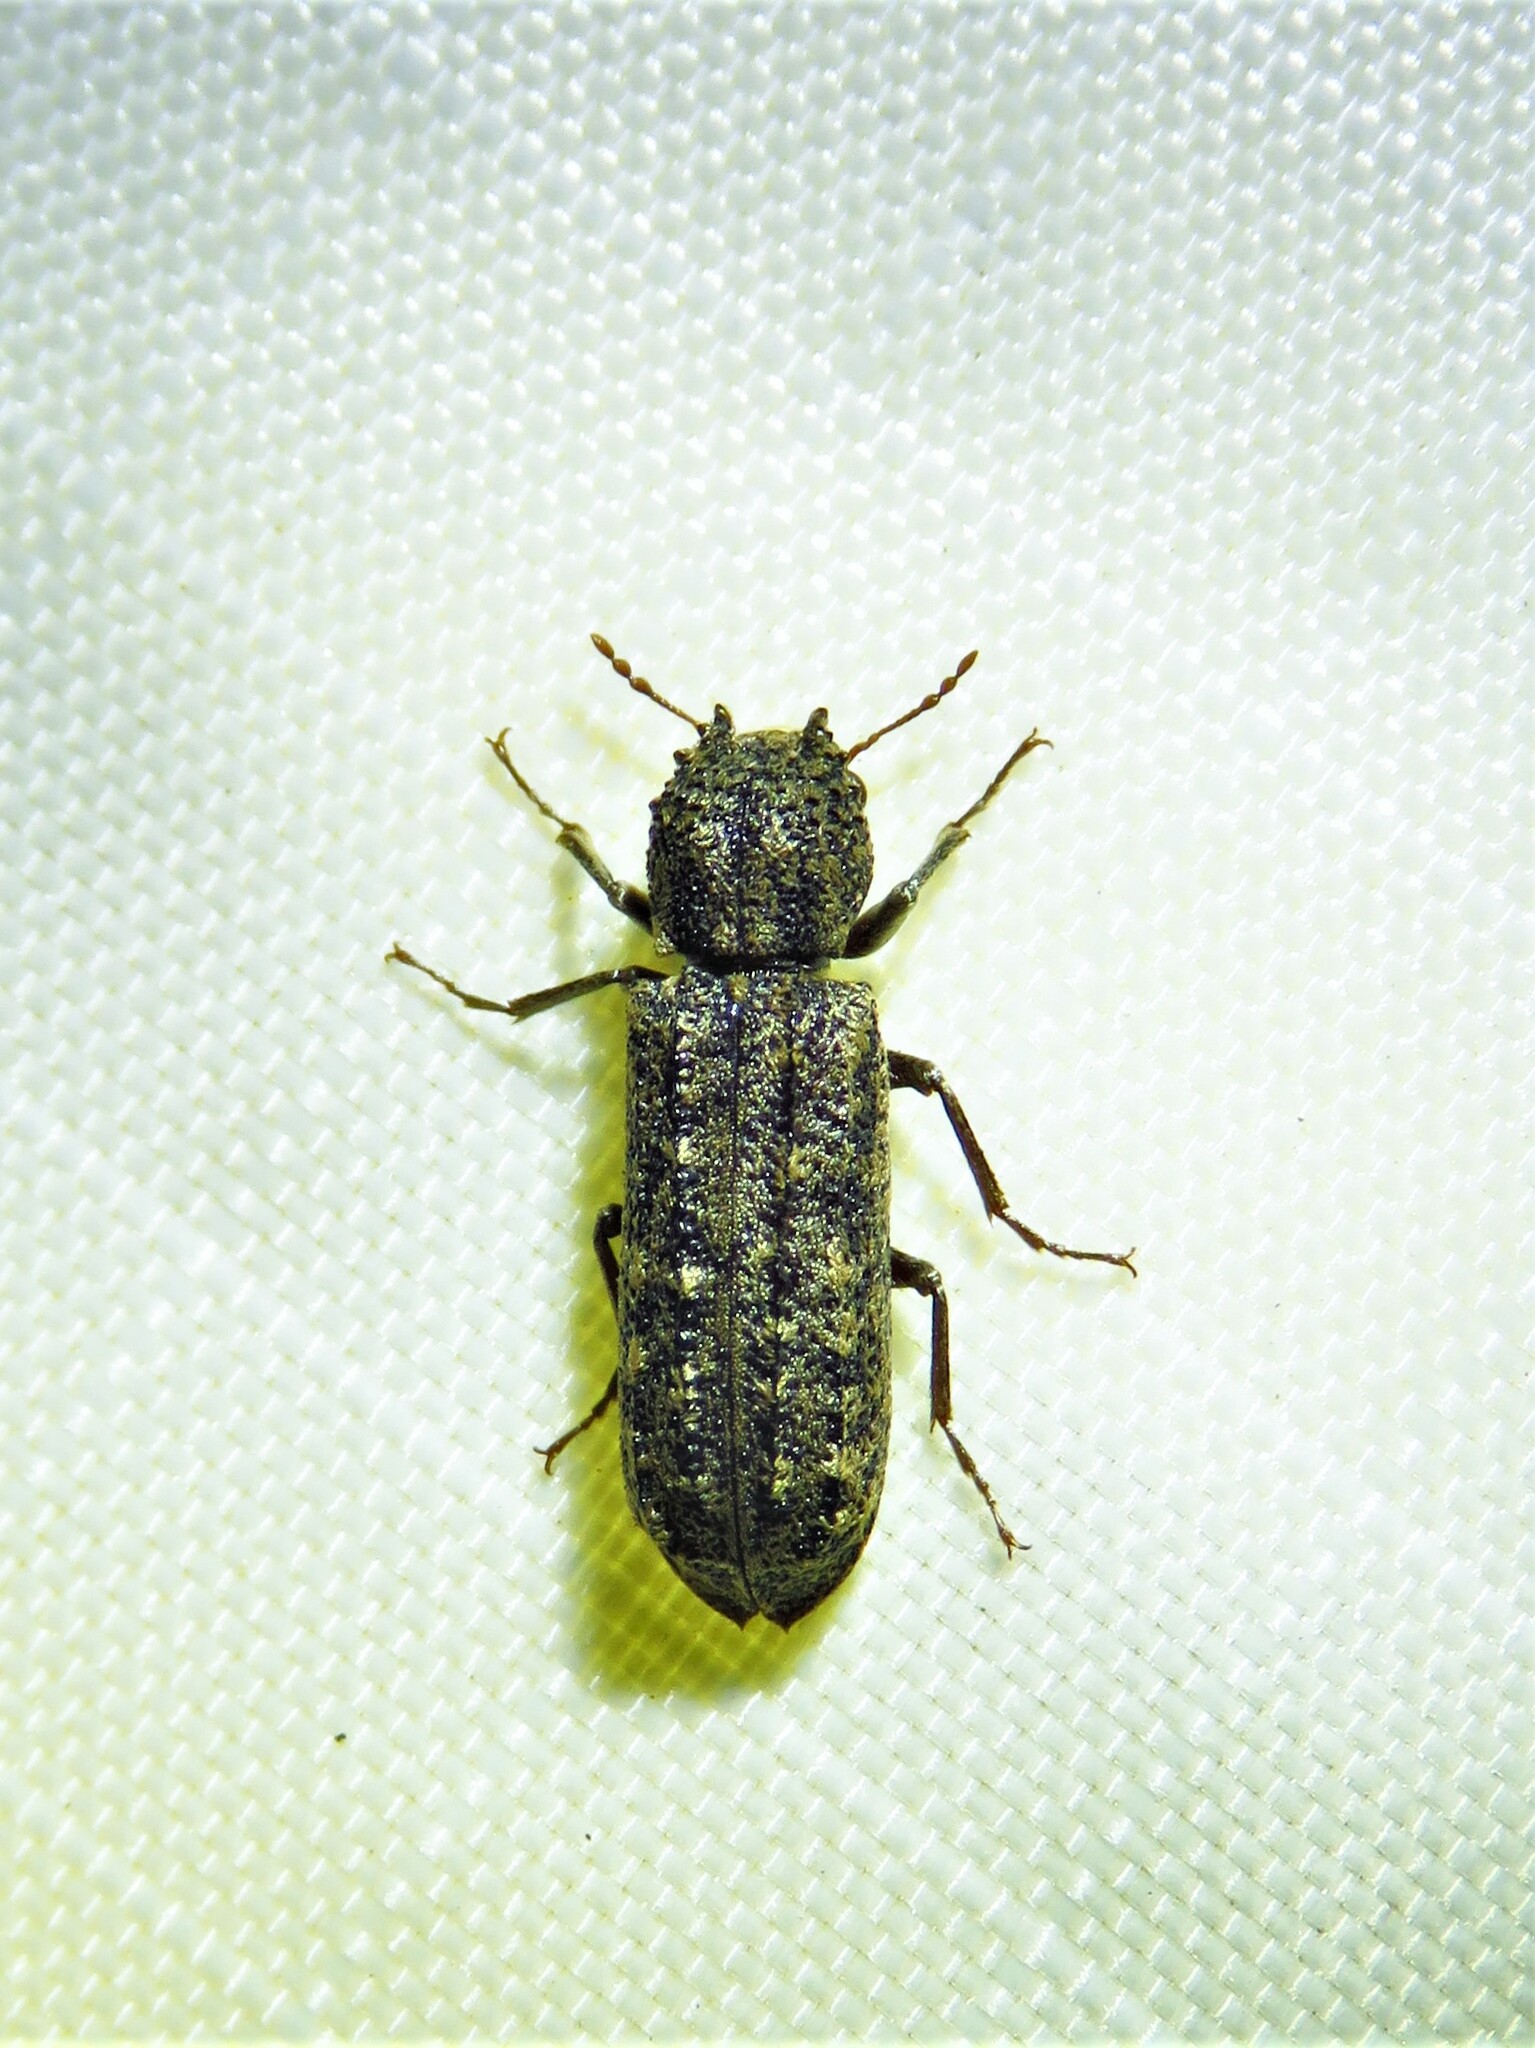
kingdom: Animalia
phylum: Arthropoda
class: Insecta
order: Coleoptera
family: Bostrichidae
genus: Lichenophanes
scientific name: Lichenophanes bicornis
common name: Two-horned powder-post beetle
